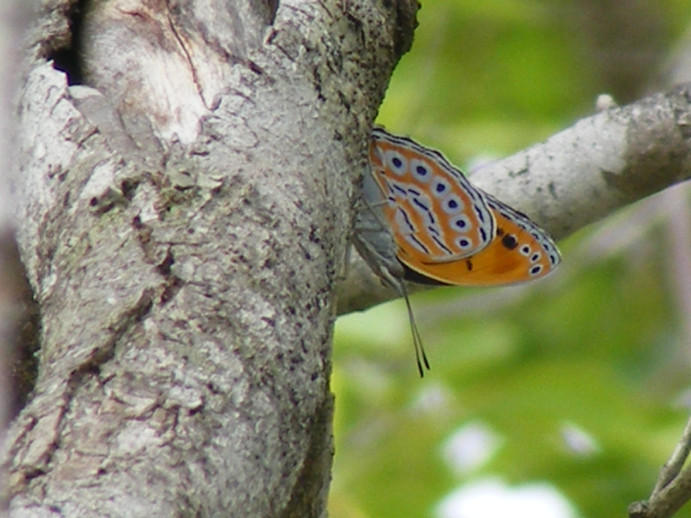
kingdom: Animalia
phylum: Arthropoda
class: Insecta
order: Lepidoptera
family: Nymphalidae
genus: Asterope
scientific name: Asterope rosa
